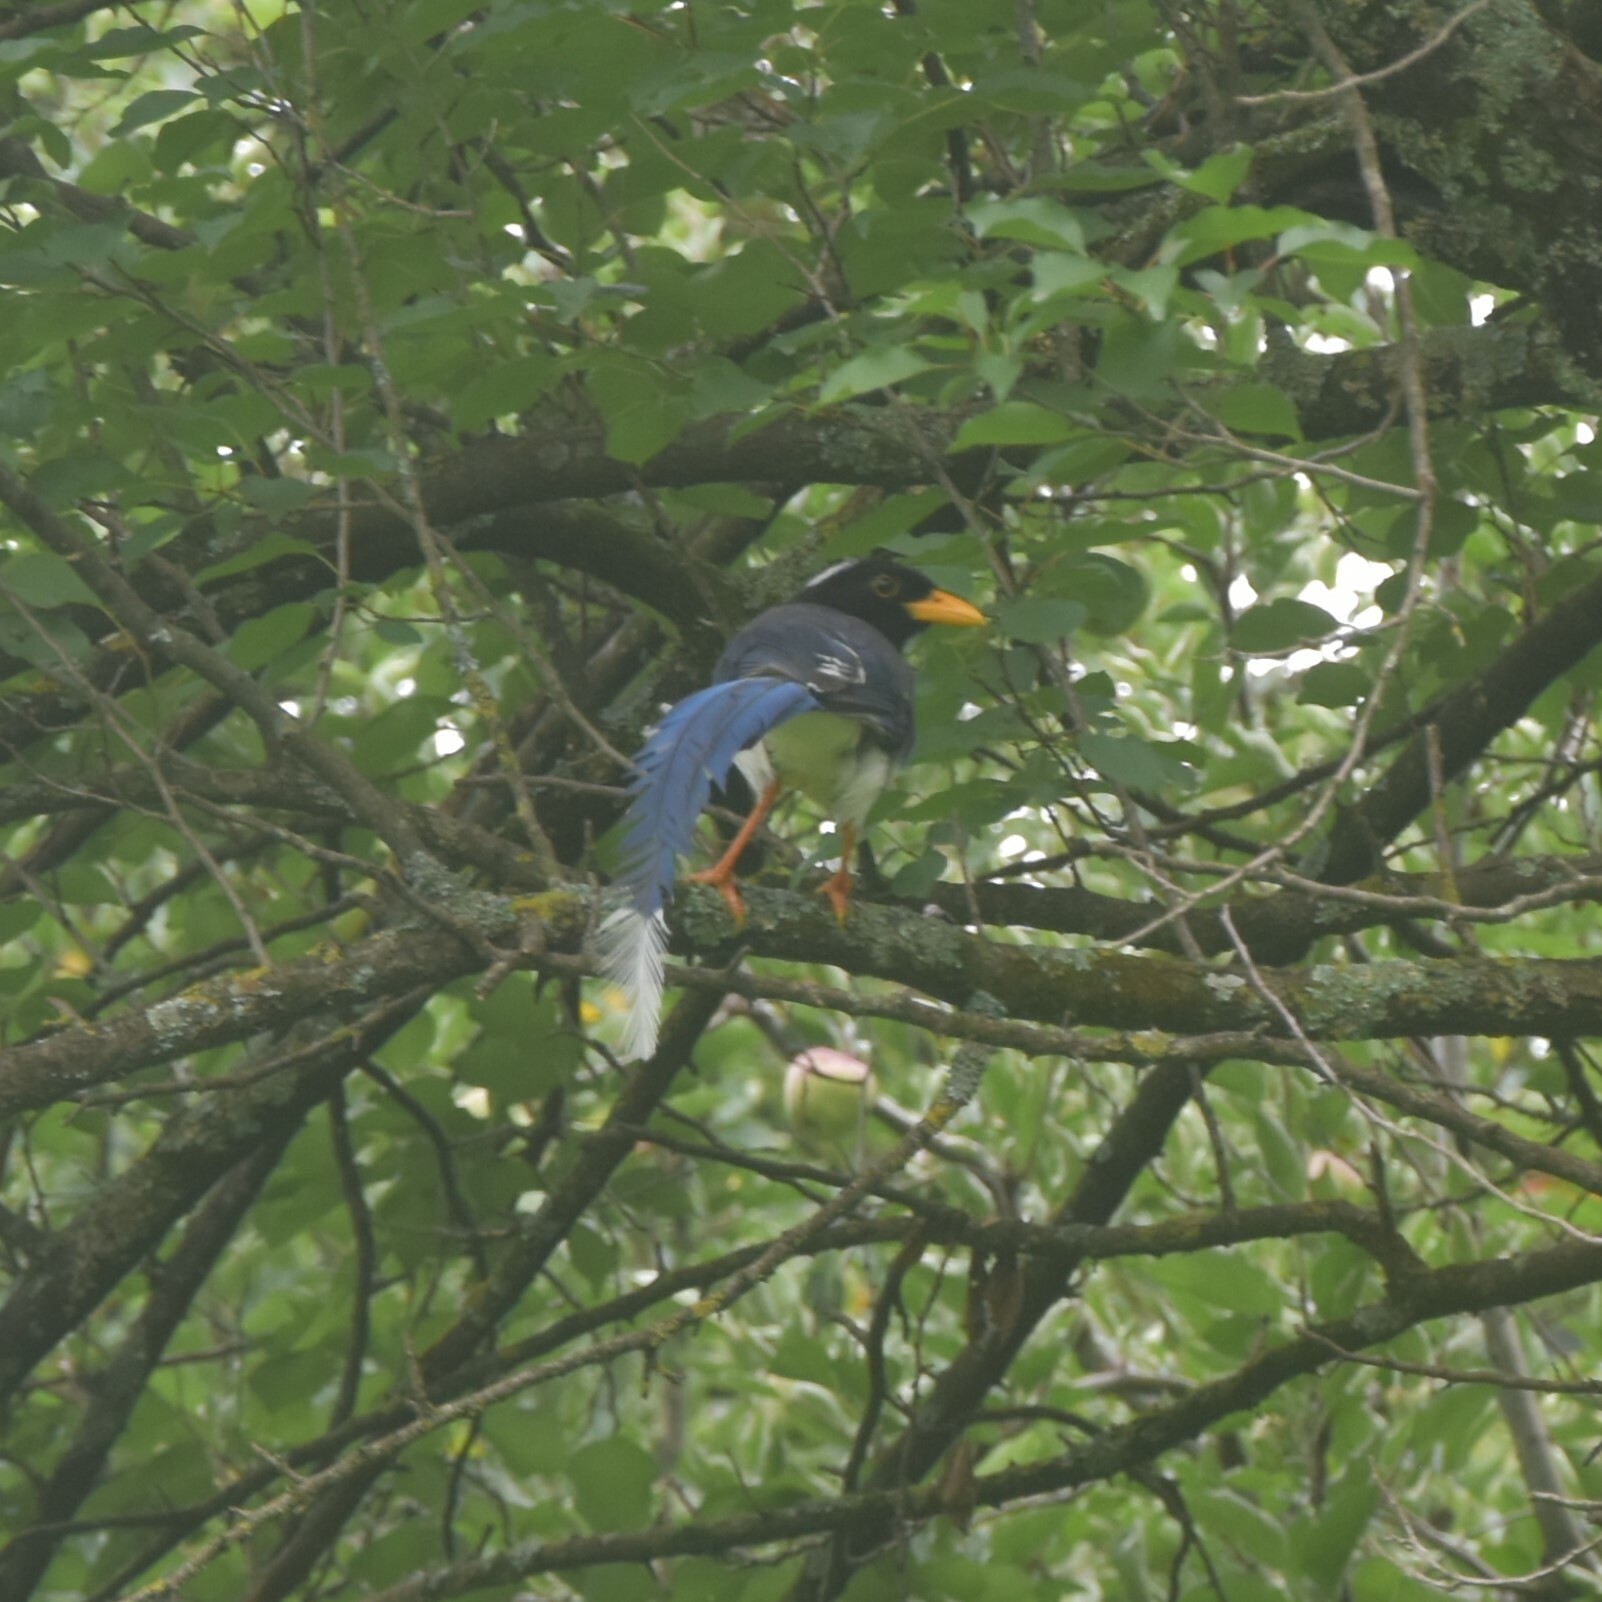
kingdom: Animalia
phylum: Chordata
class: Aves
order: Passeriformes
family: Corvidae
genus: Urocissa
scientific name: Urocissa flavirostris
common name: Yellow-billed blue magpie
